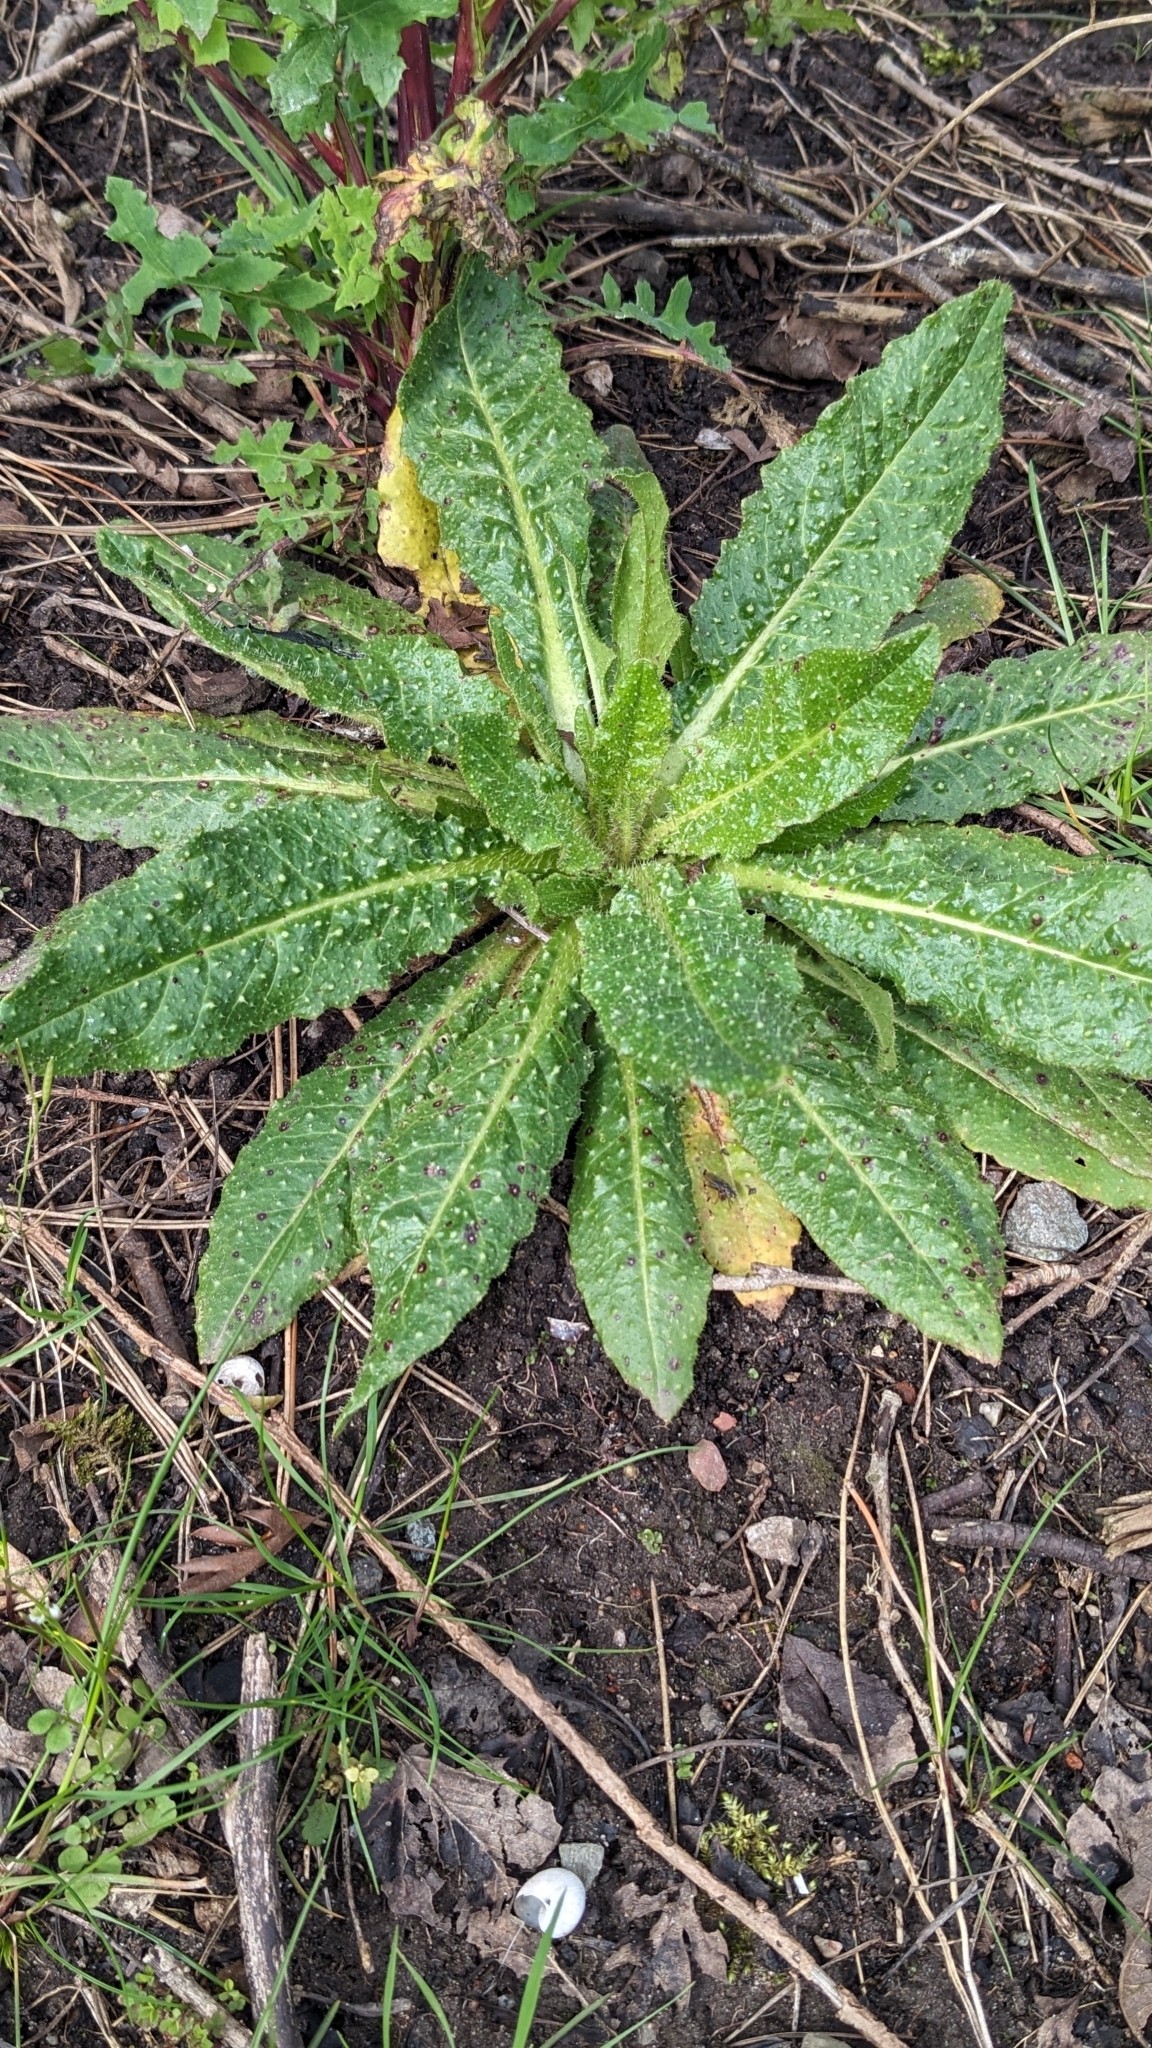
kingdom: Plantae
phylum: Tracheophyta
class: Magnoliopsida
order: Asterales
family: Asteraceae
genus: Helminthotheca
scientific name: Helminthotheca echioides
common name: Ox-tongue
